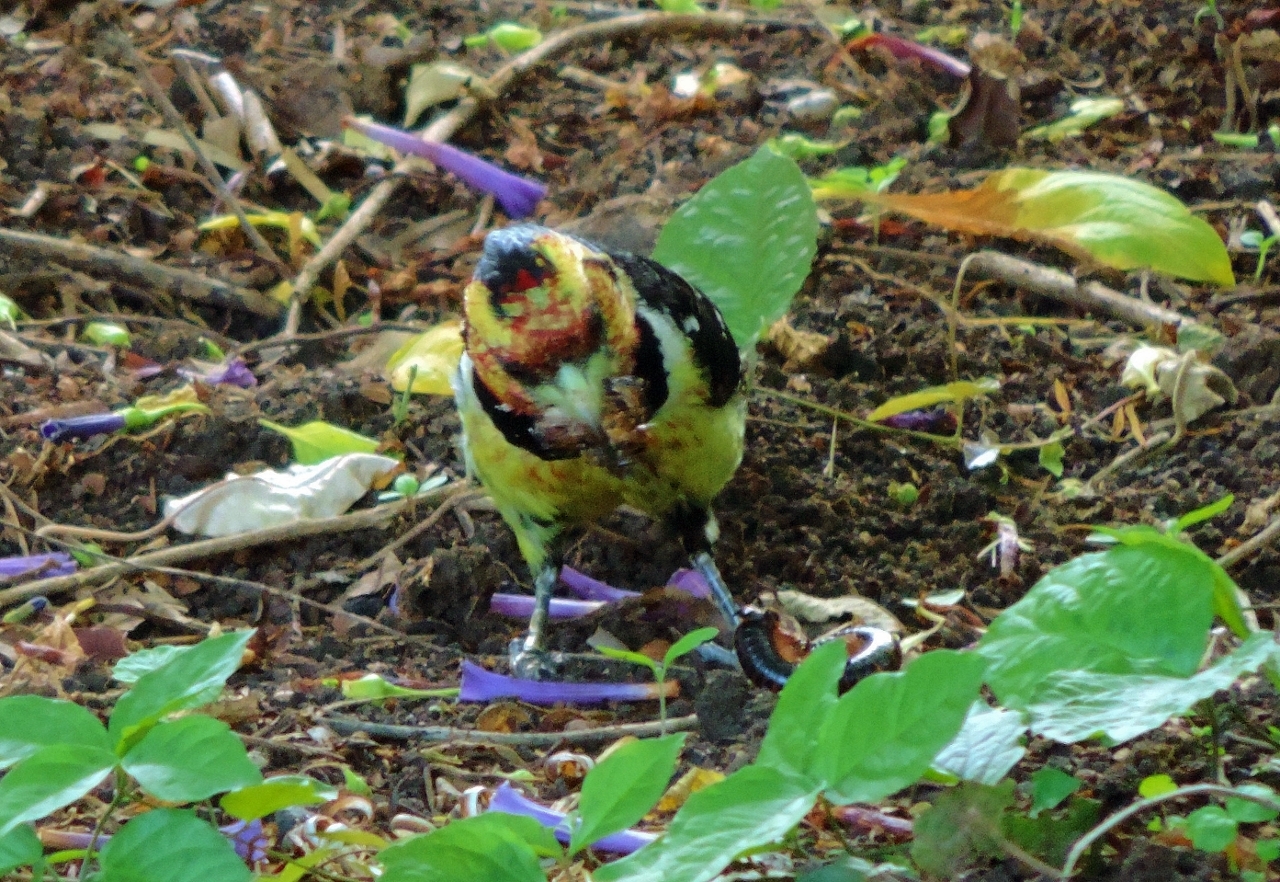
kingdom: Animalia
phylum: Chordata
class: Aves
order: Piciformes
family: Lybiidae
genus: Trachyphonus
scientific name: Trachyphonus vaillantii
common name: Crested barbet
